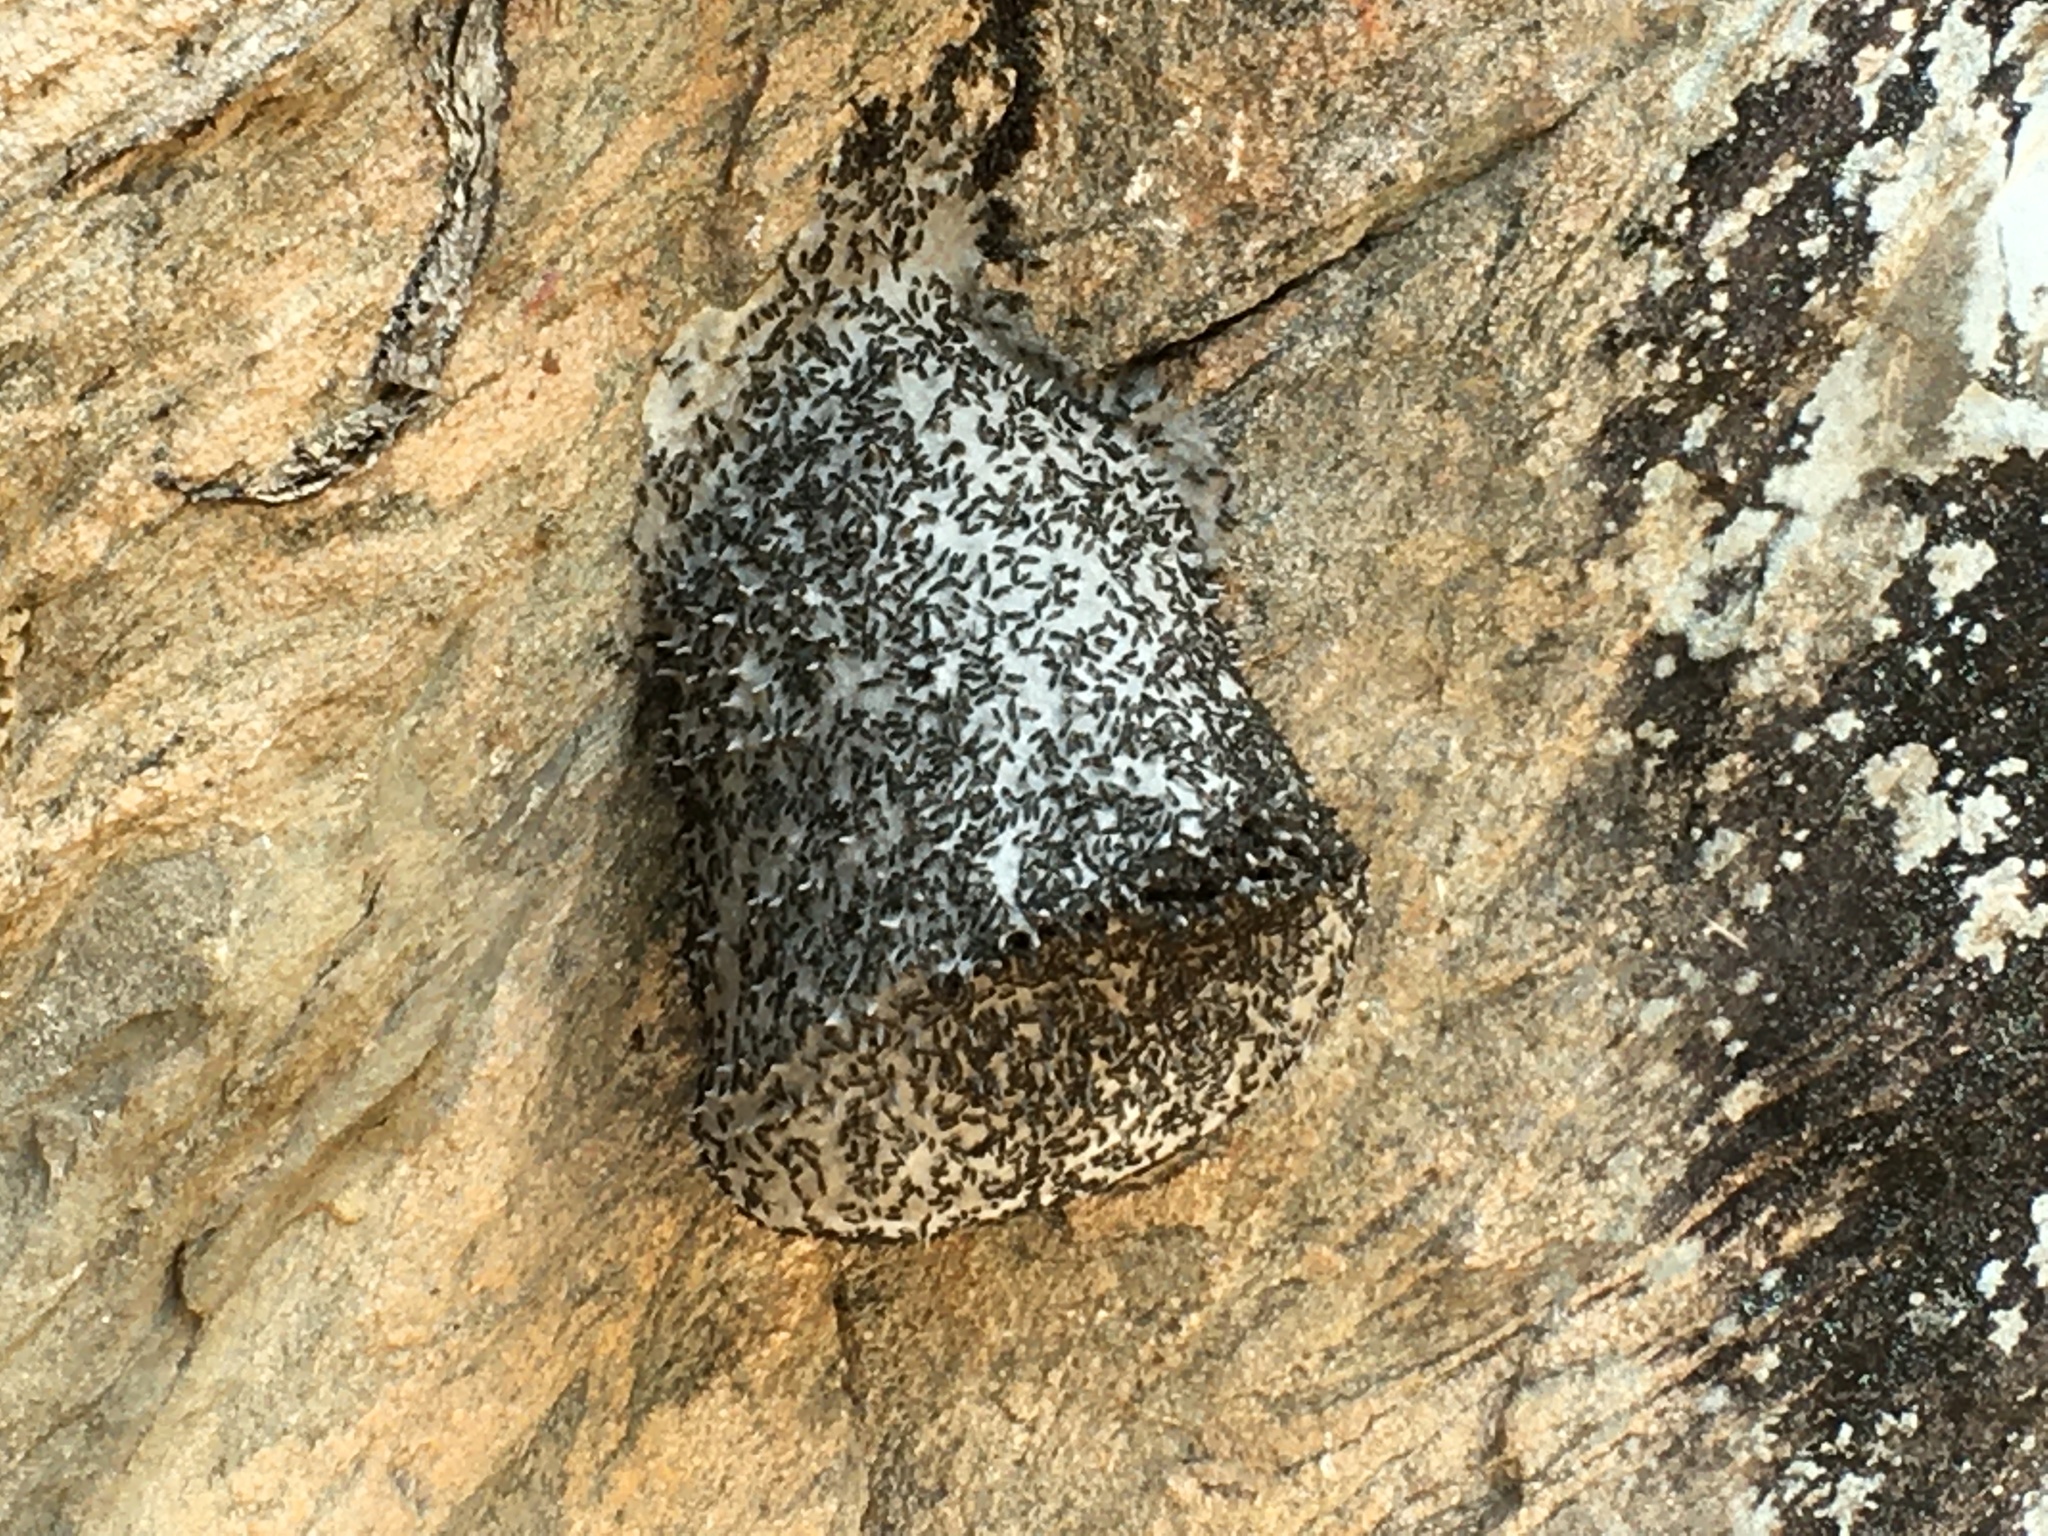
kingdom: Animalia
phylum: Arthropoda
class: Insecta
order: Hymenoptera
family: Eumenidae
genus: Polybia
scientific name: Polybia scutellaris
